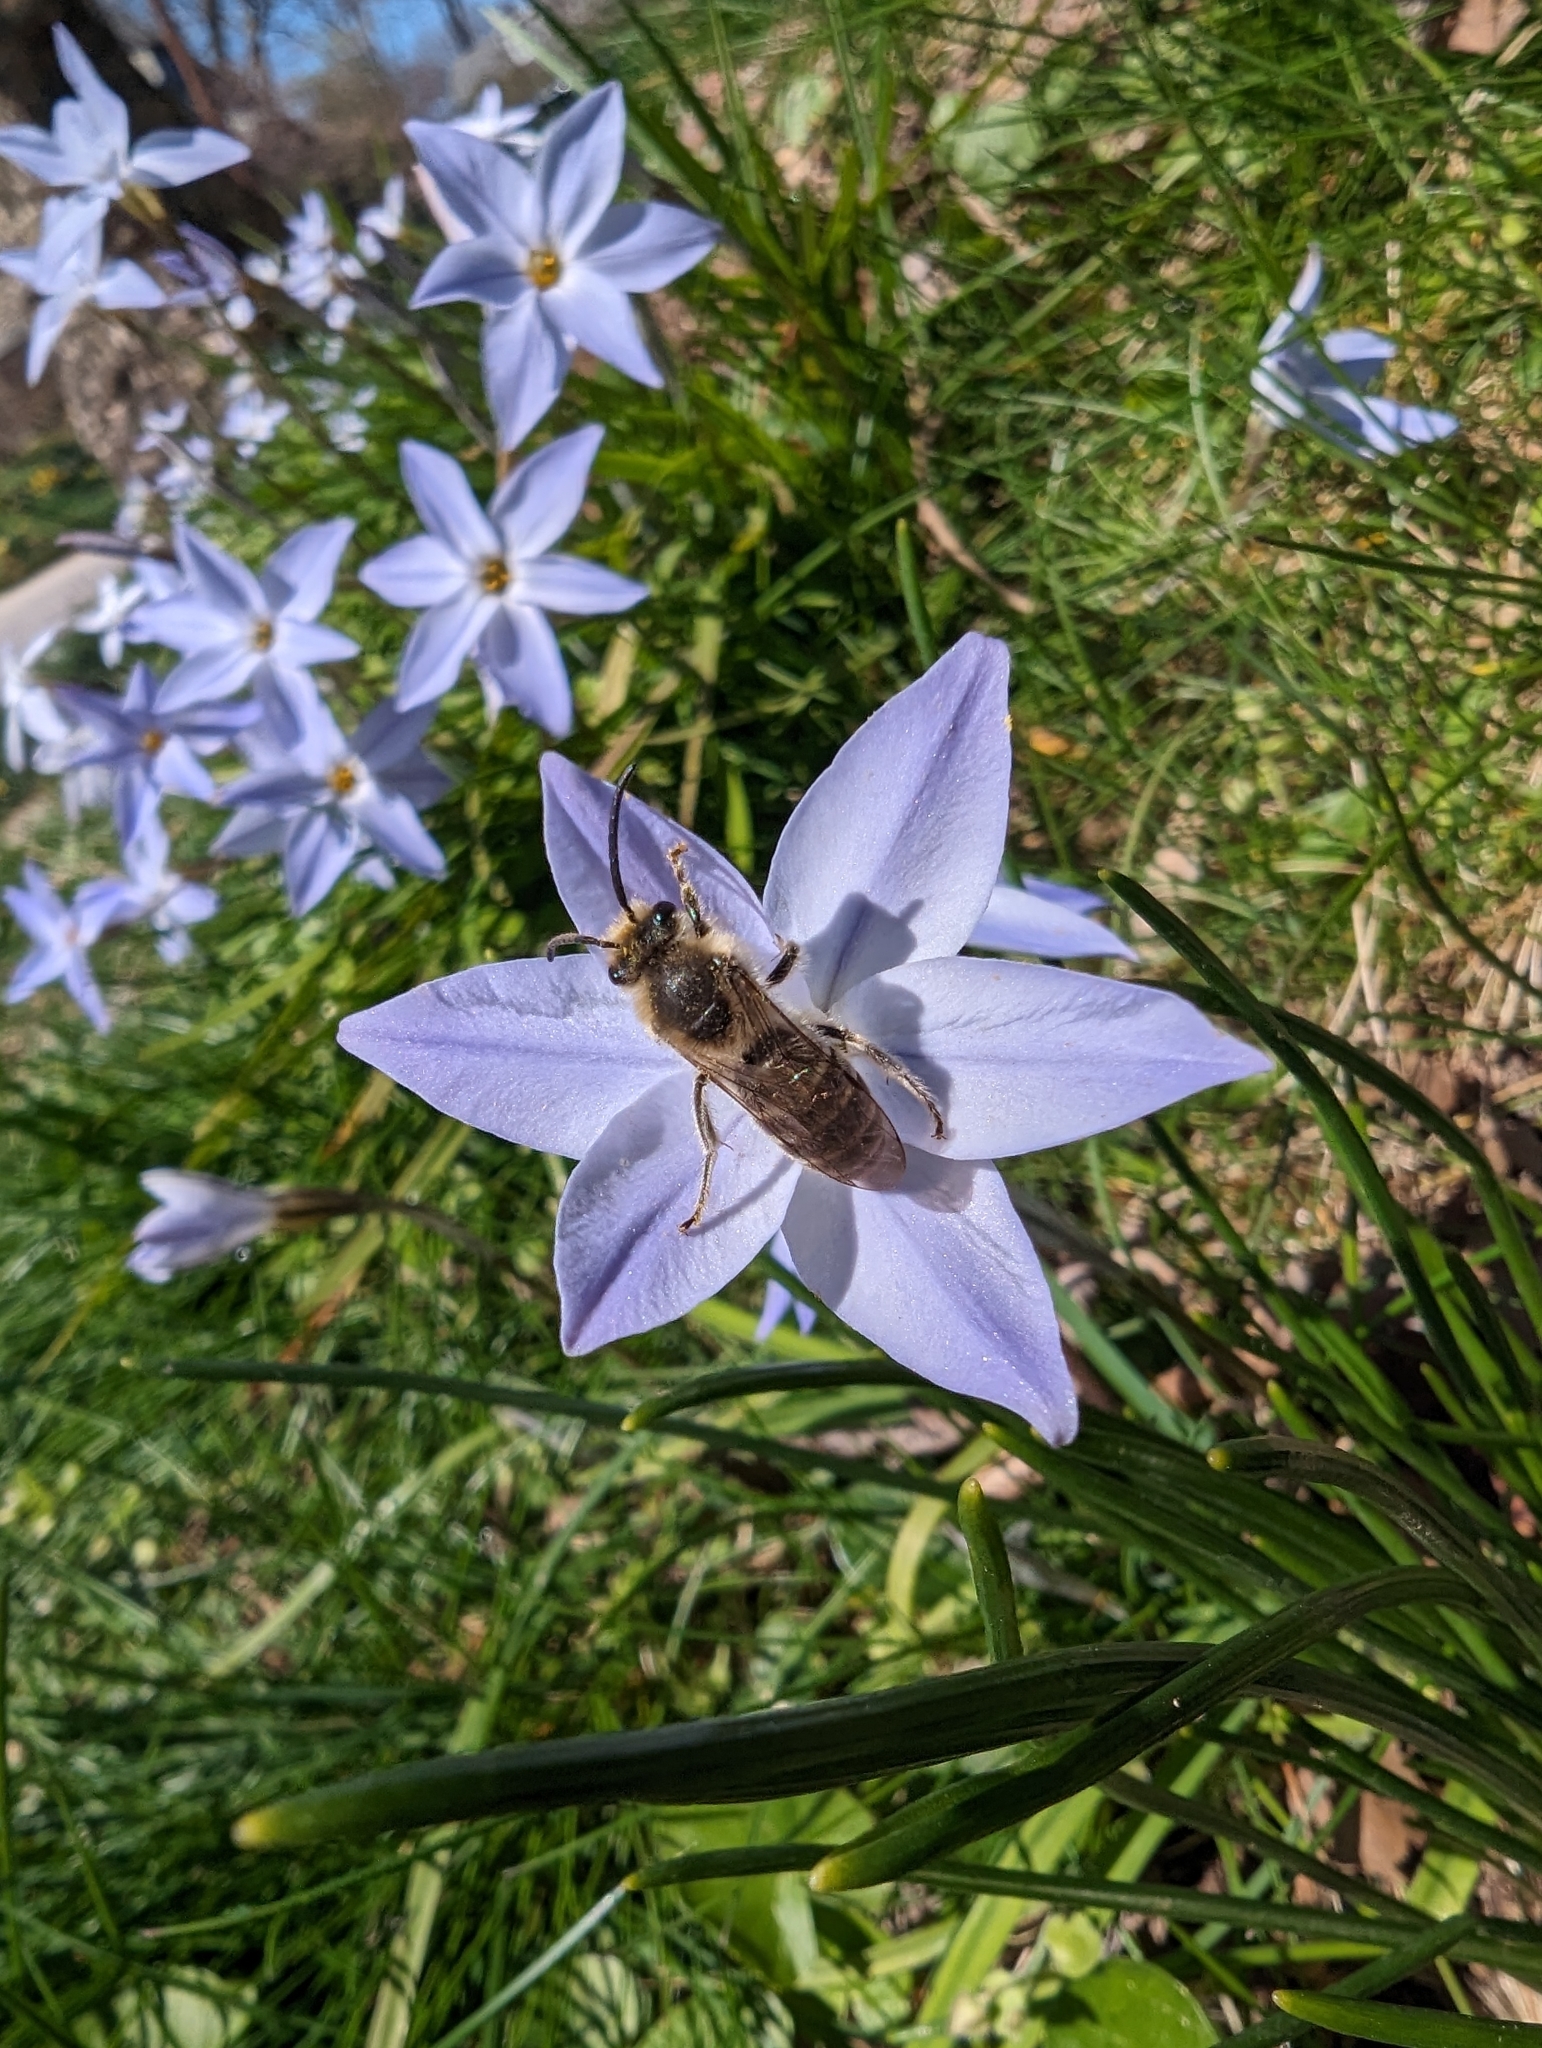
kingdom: Plantae
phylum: Tracheophyta
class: Liliopsida
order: Asparagales
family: Amaryllidaceae
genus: Ipheion
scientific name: Ipheion uniflorum
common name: Spring starflower
